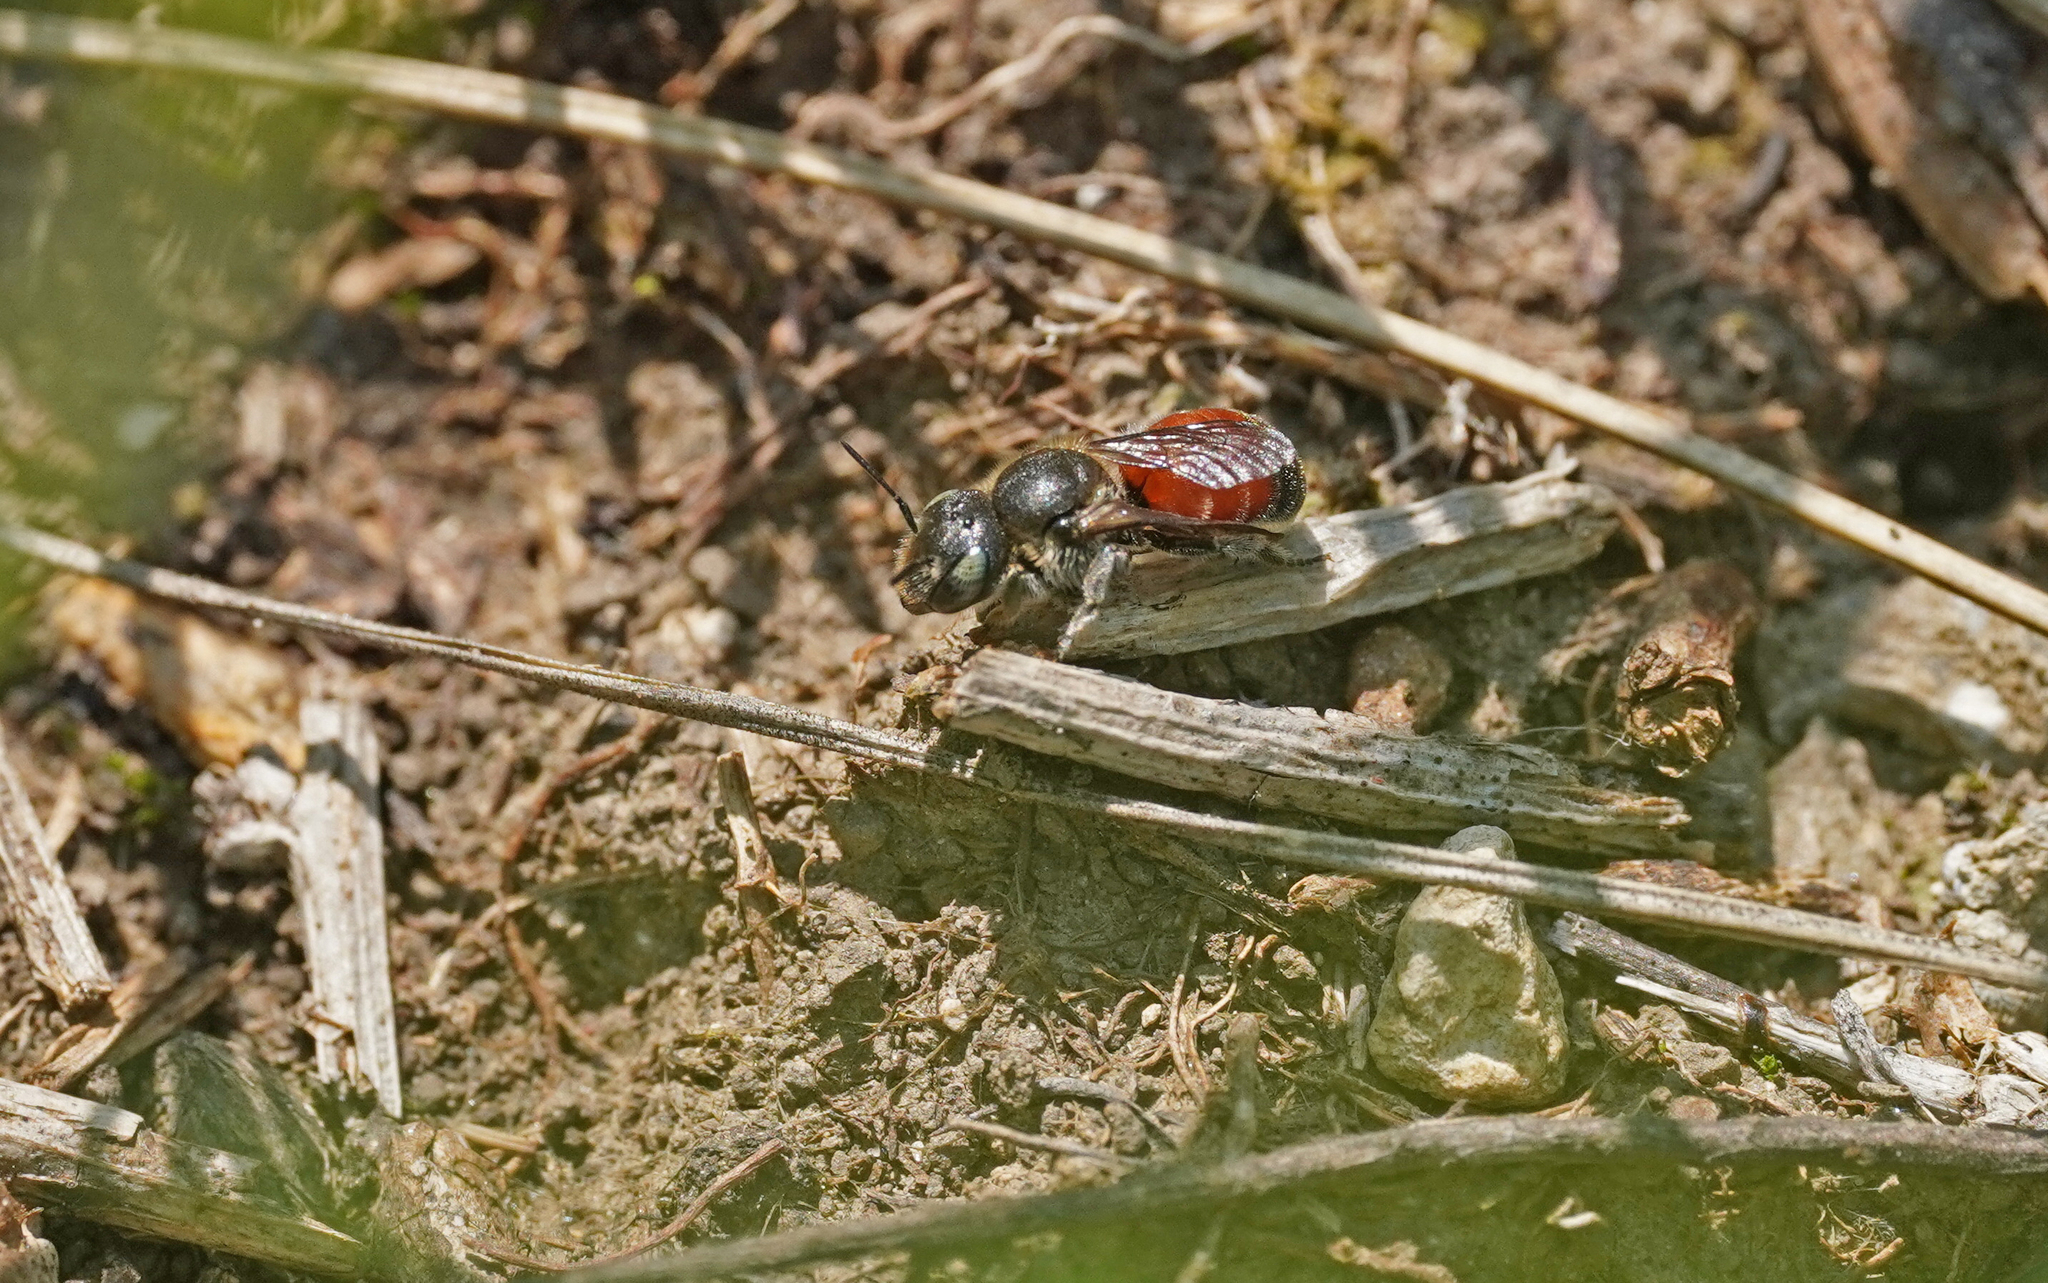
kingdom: Animalia
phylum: Arthropoda
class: Insecta
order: Hymenoptera
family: Megachilidae
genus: Osmia
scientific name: Osmia andrenoides
